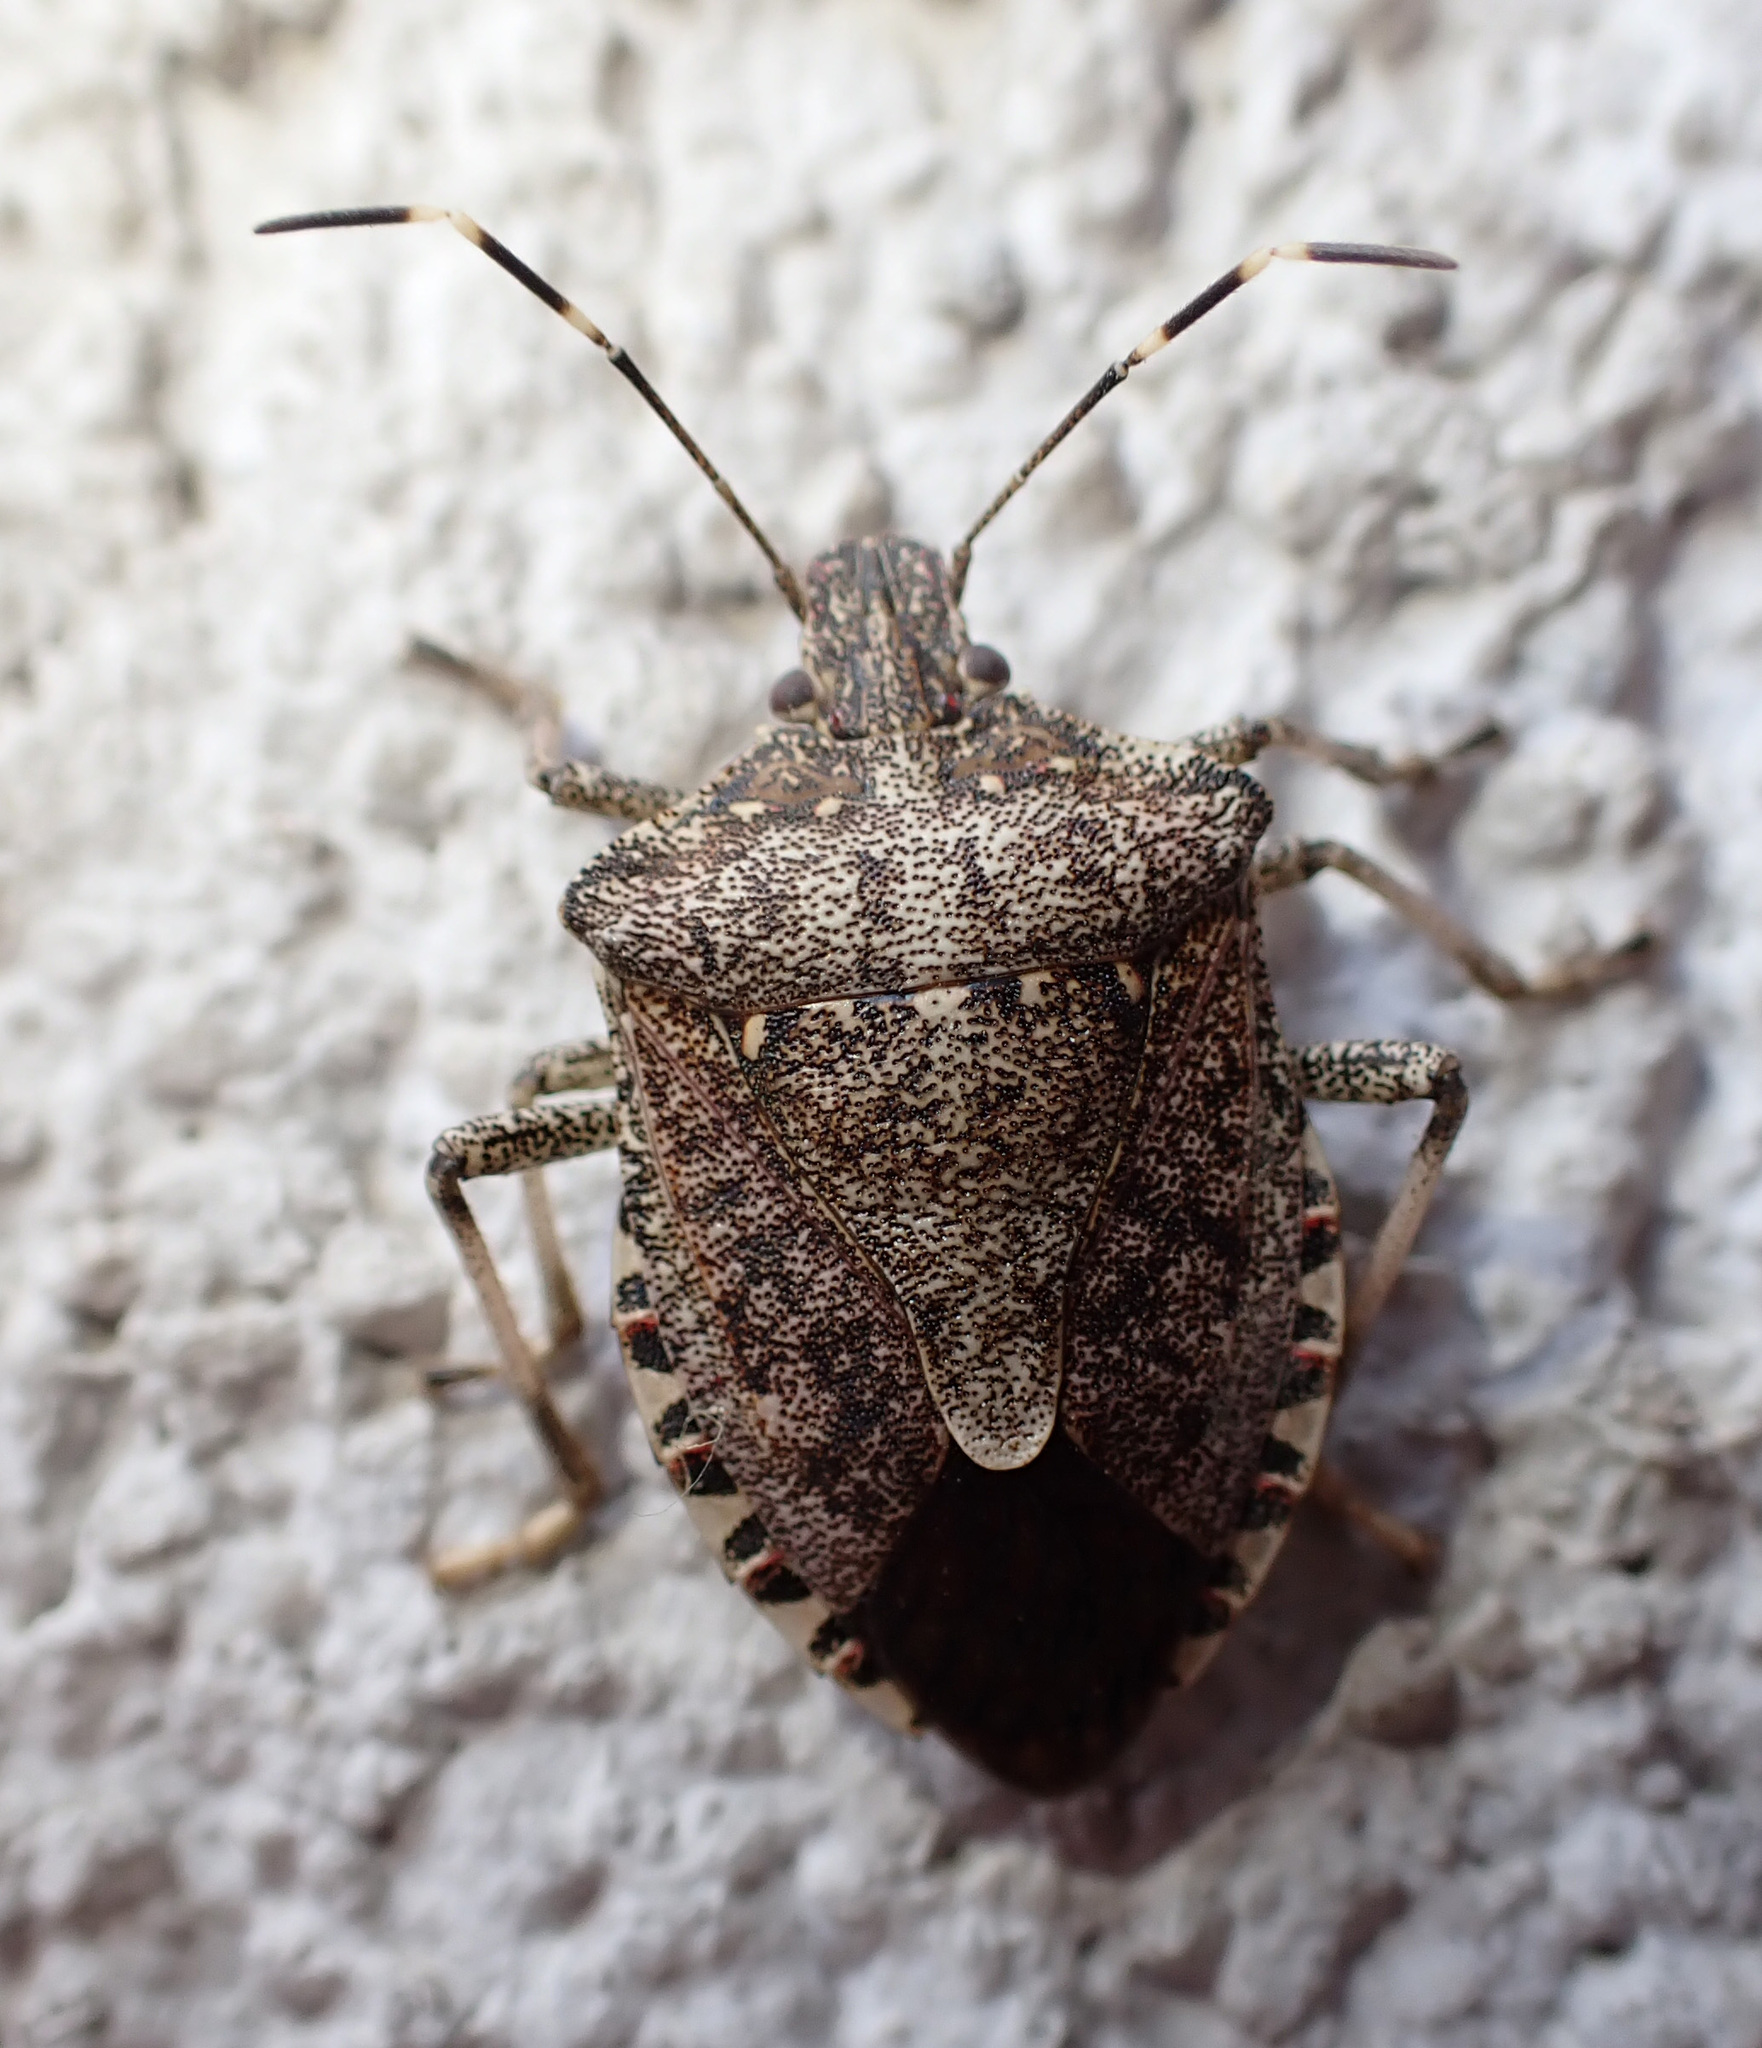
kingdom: Animalia
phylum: Arthropoda
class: Insecta
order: Hemiptera
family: Pentatomidae
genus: Halyomorpha
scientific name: Halyomorpha halys
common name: Brown marmorated stink bug
